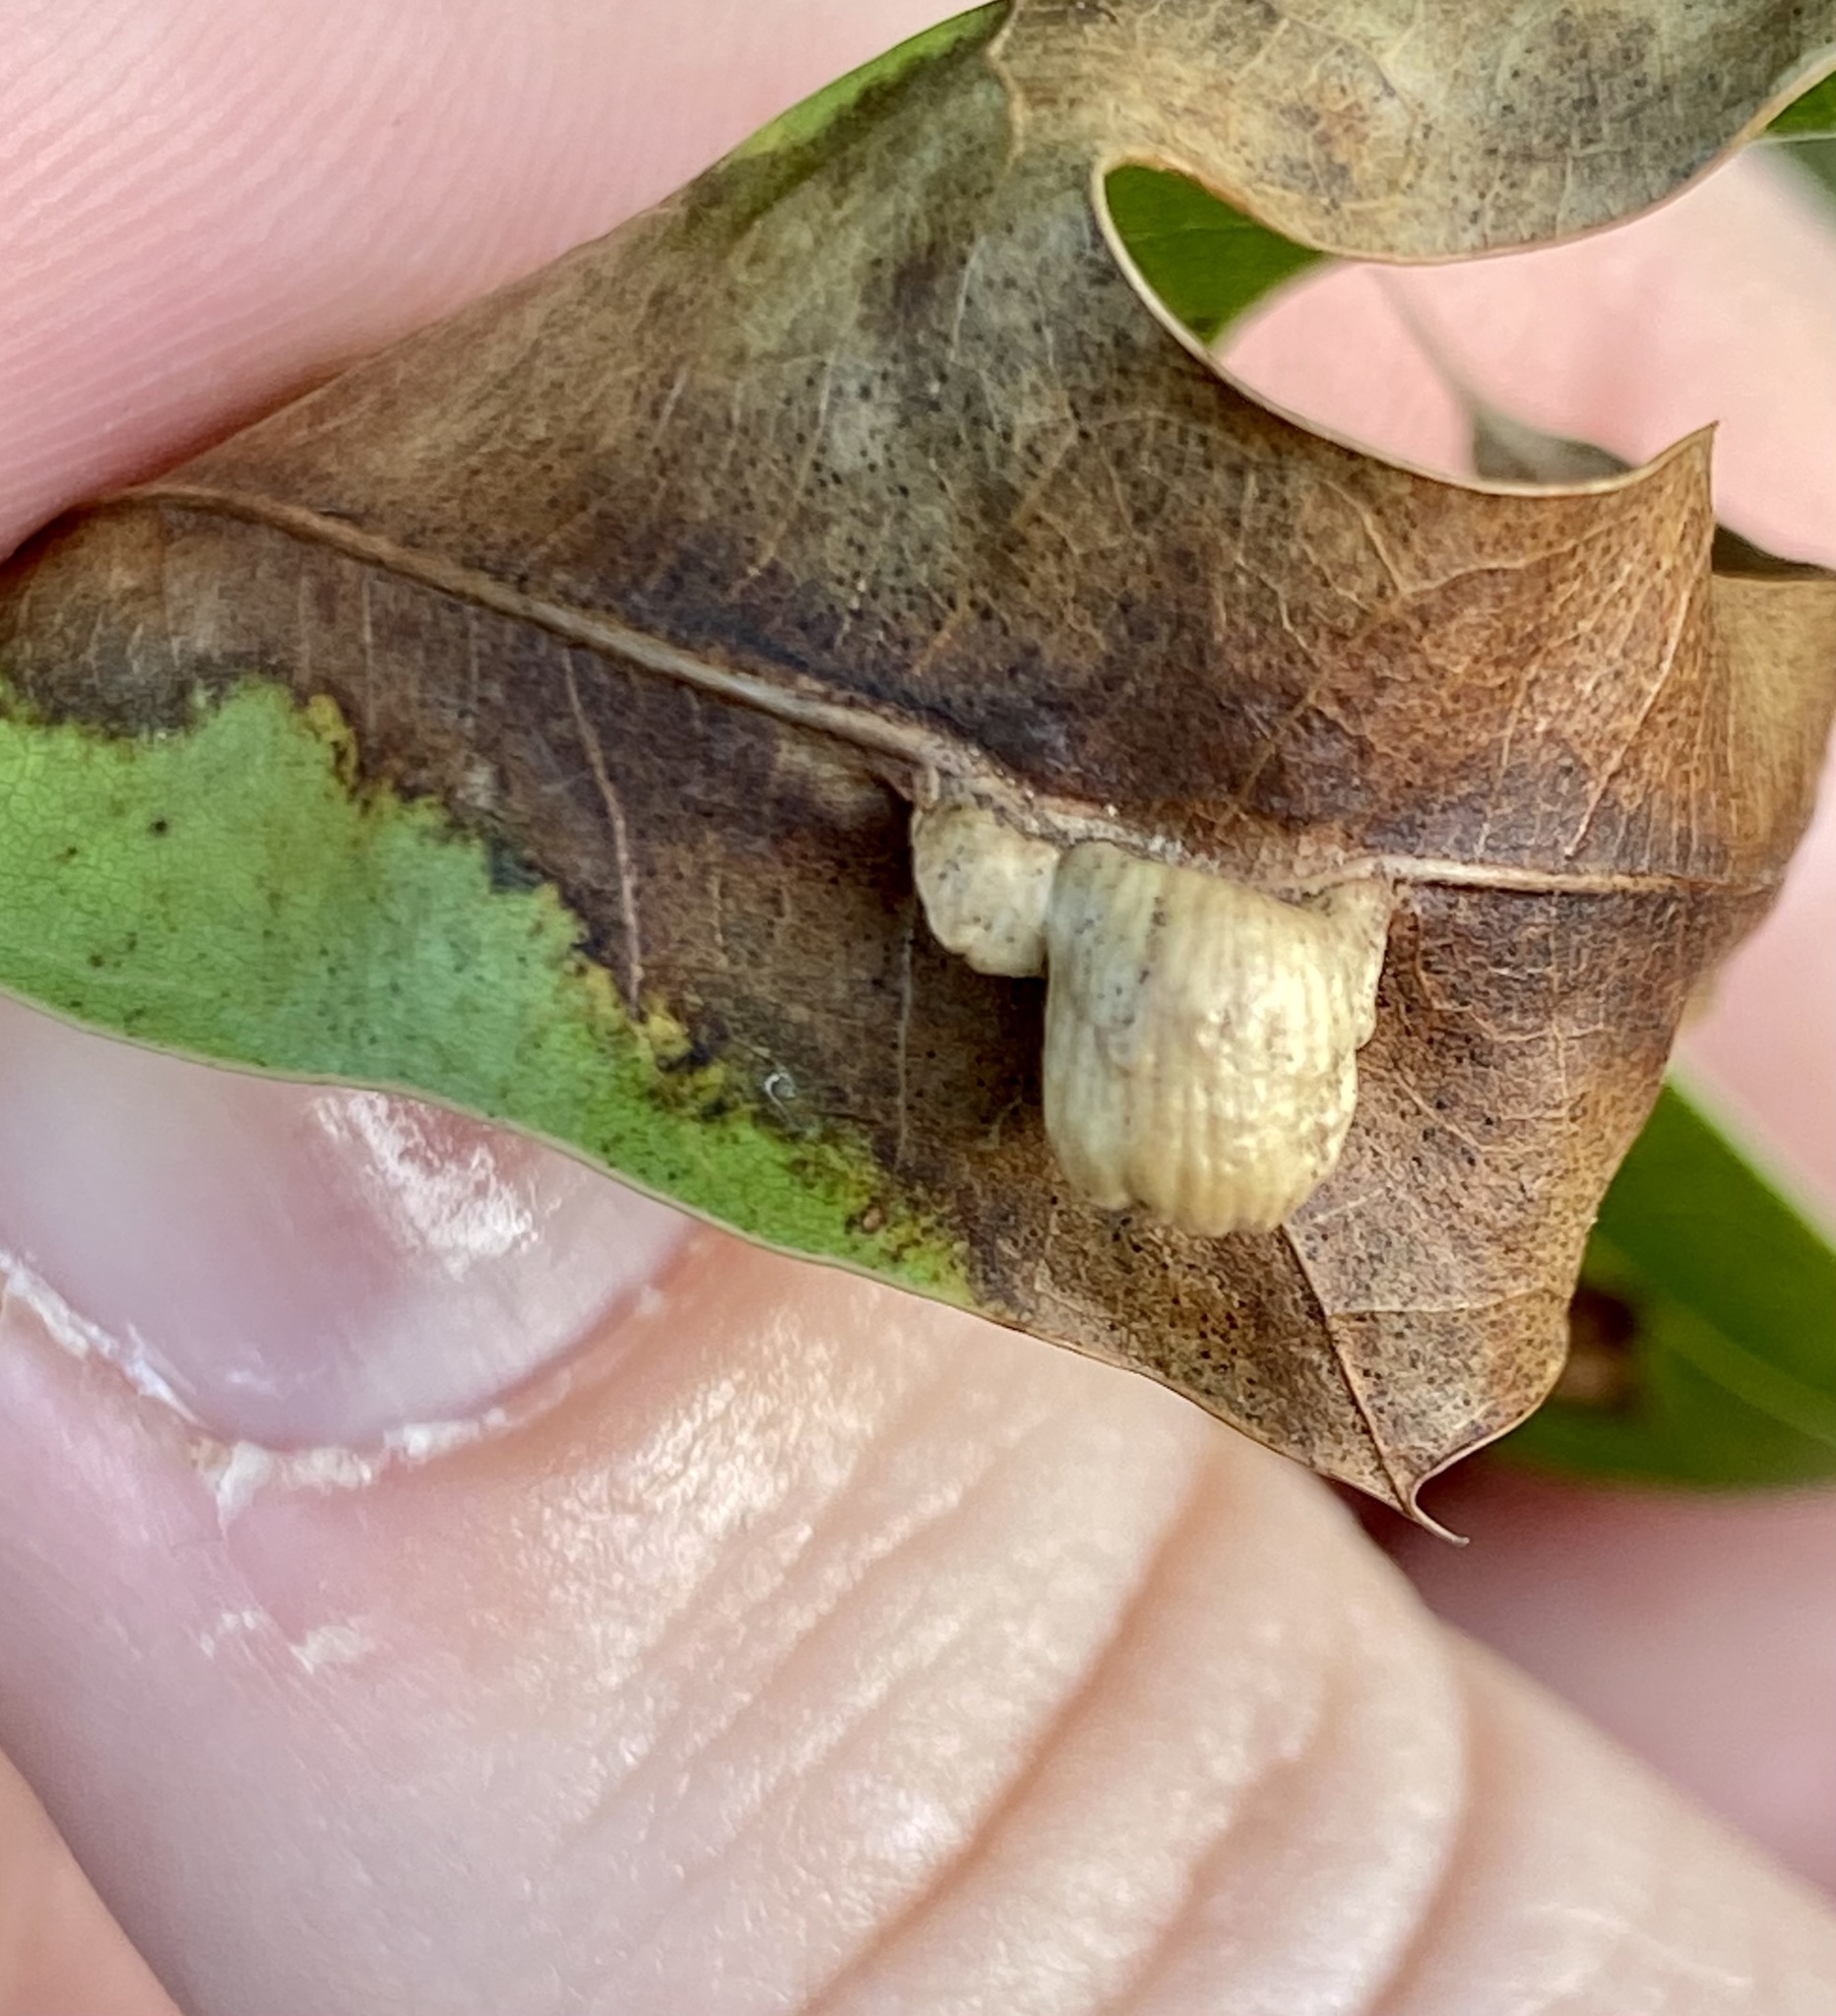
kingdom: Animalia
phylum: Arthropoda
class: Insecta
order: Diptera
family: Cecidomyiidae
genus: Macrodiplosis
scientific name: Macrodiplosis majalis
